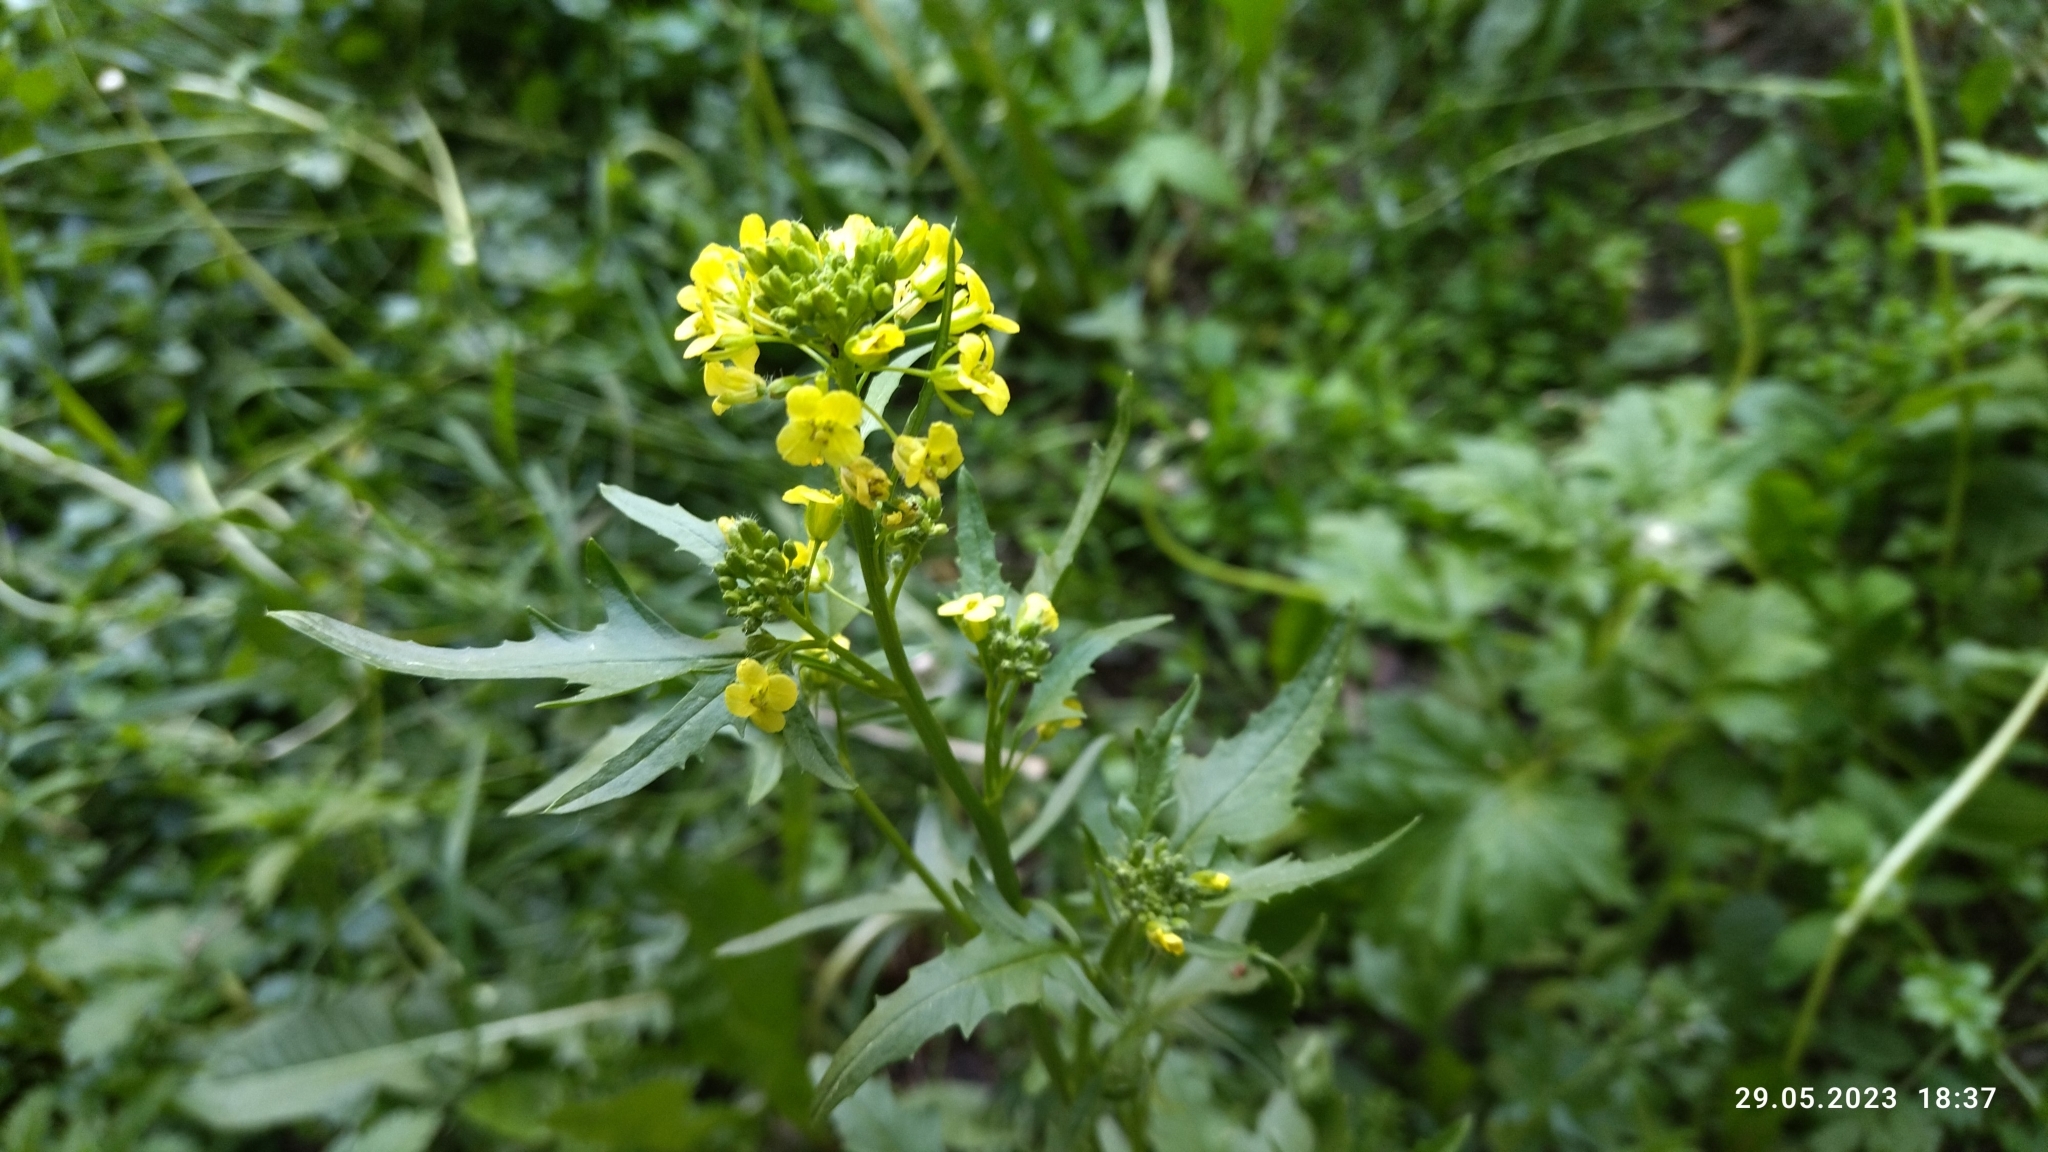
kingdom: Plantae
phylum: Tracheophyta
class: Magnoliopsida
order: Brassicales
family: Brassicaceae
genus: Sisymbrium
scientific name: Sisymbrium loeselii
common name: False london-rocket
